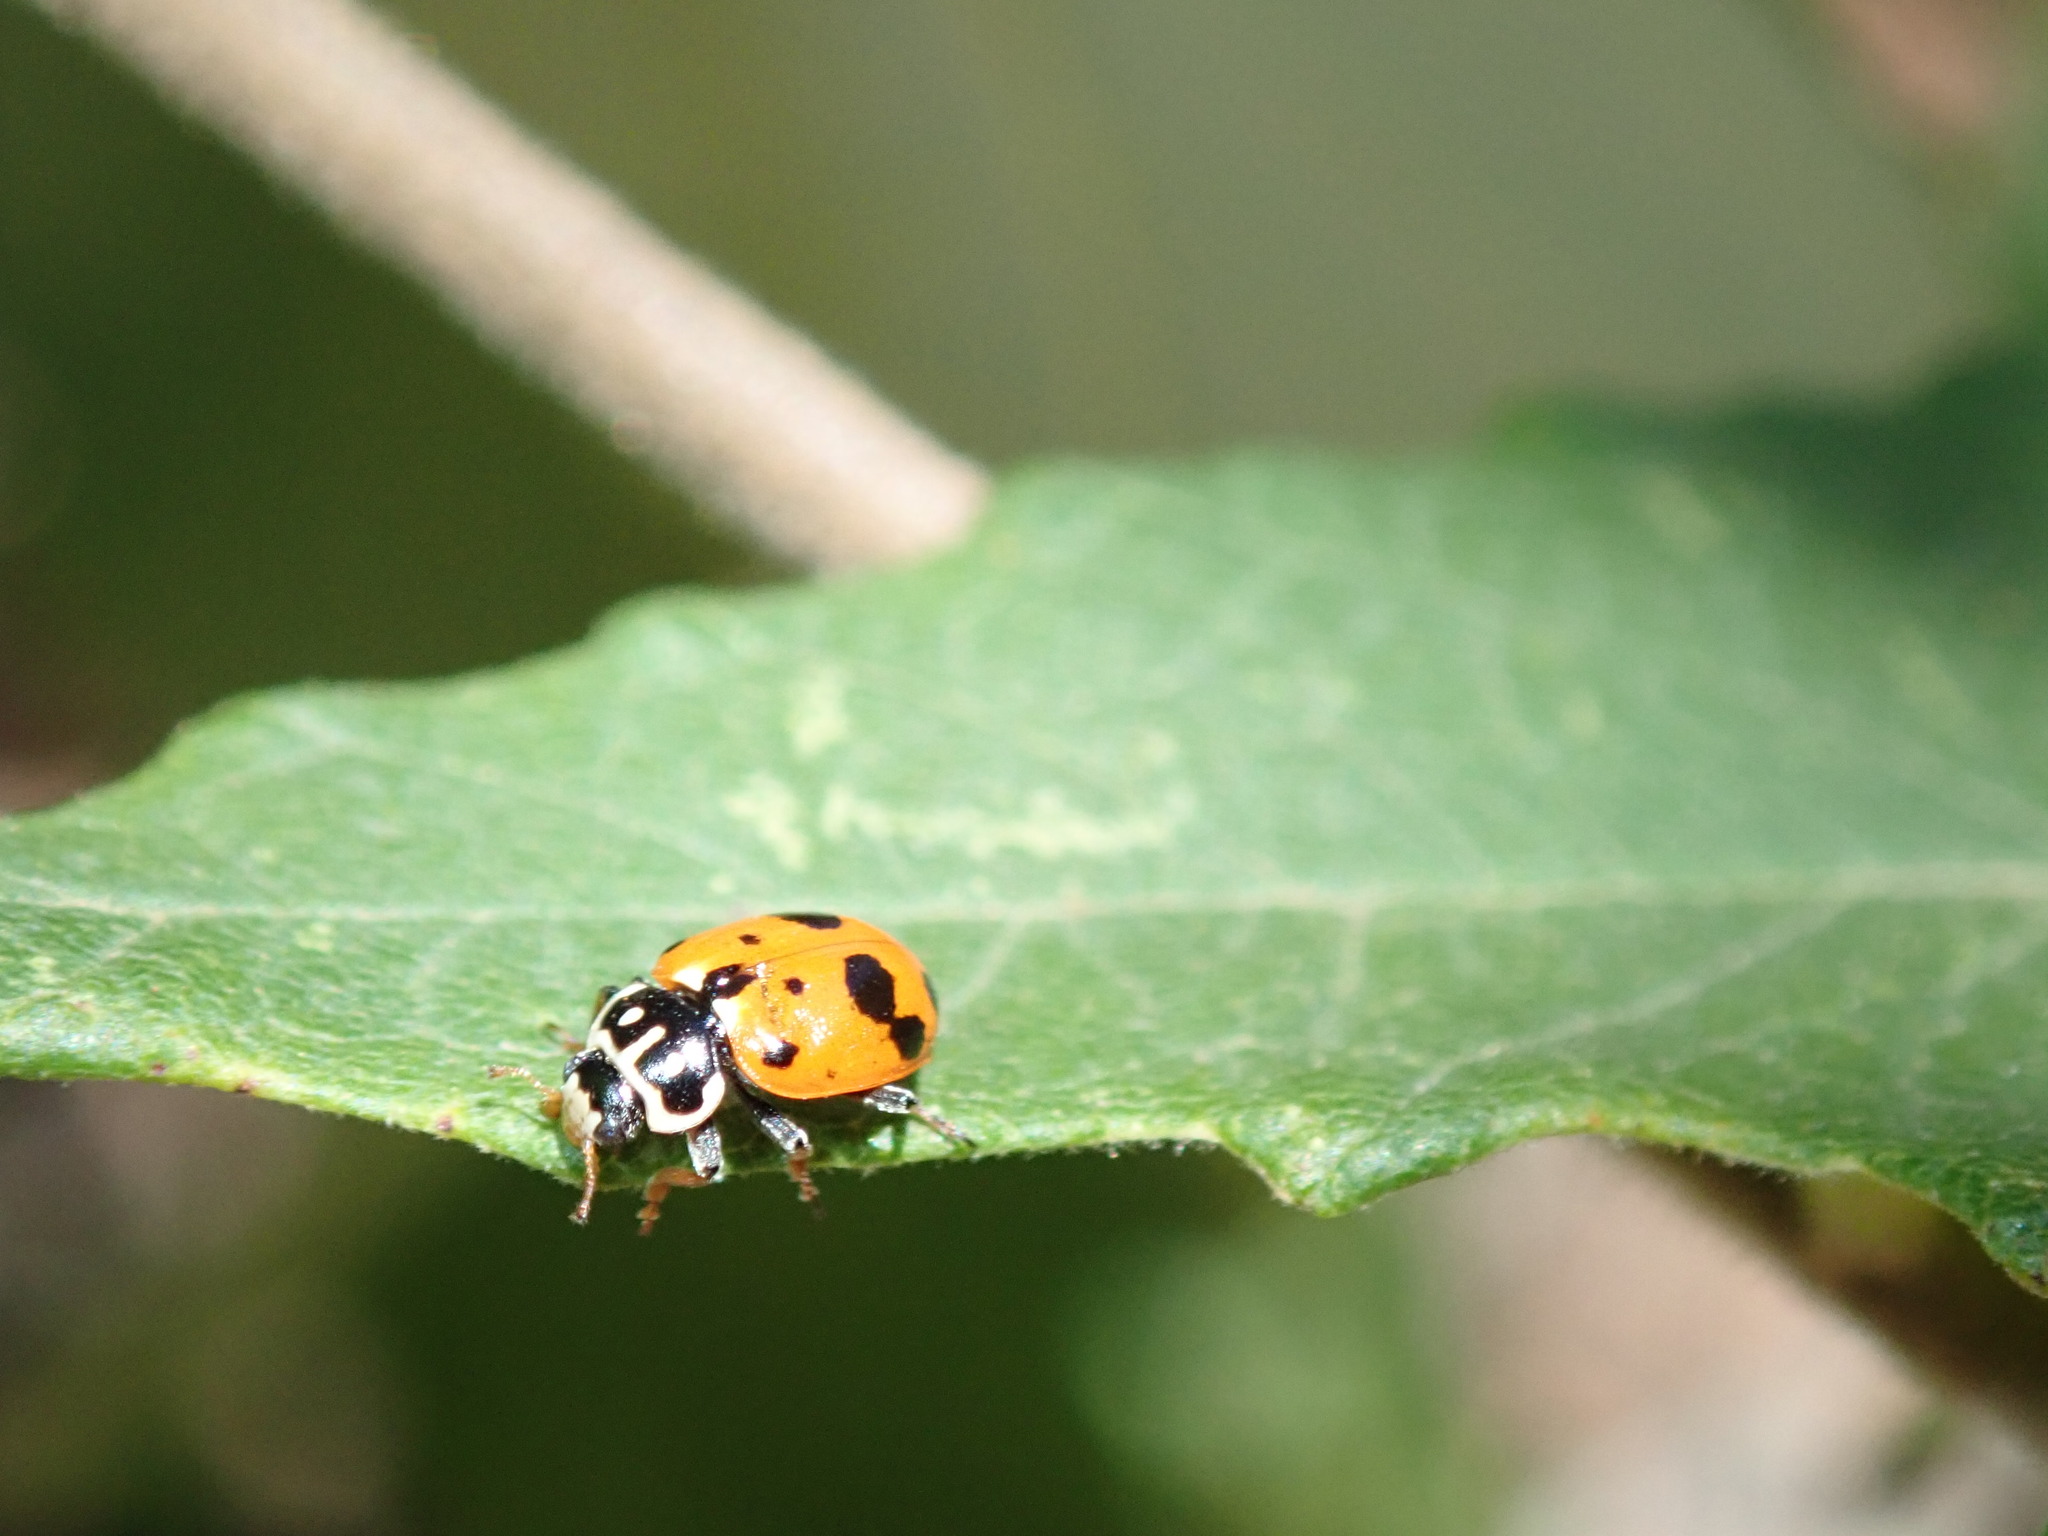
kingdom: Animalia
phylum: Arthropoda
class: Insecta
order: Coleoptera
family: Coccinellidae
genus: Hippodamia
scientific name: Hippodamia variegata
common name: Ladybird beetle
